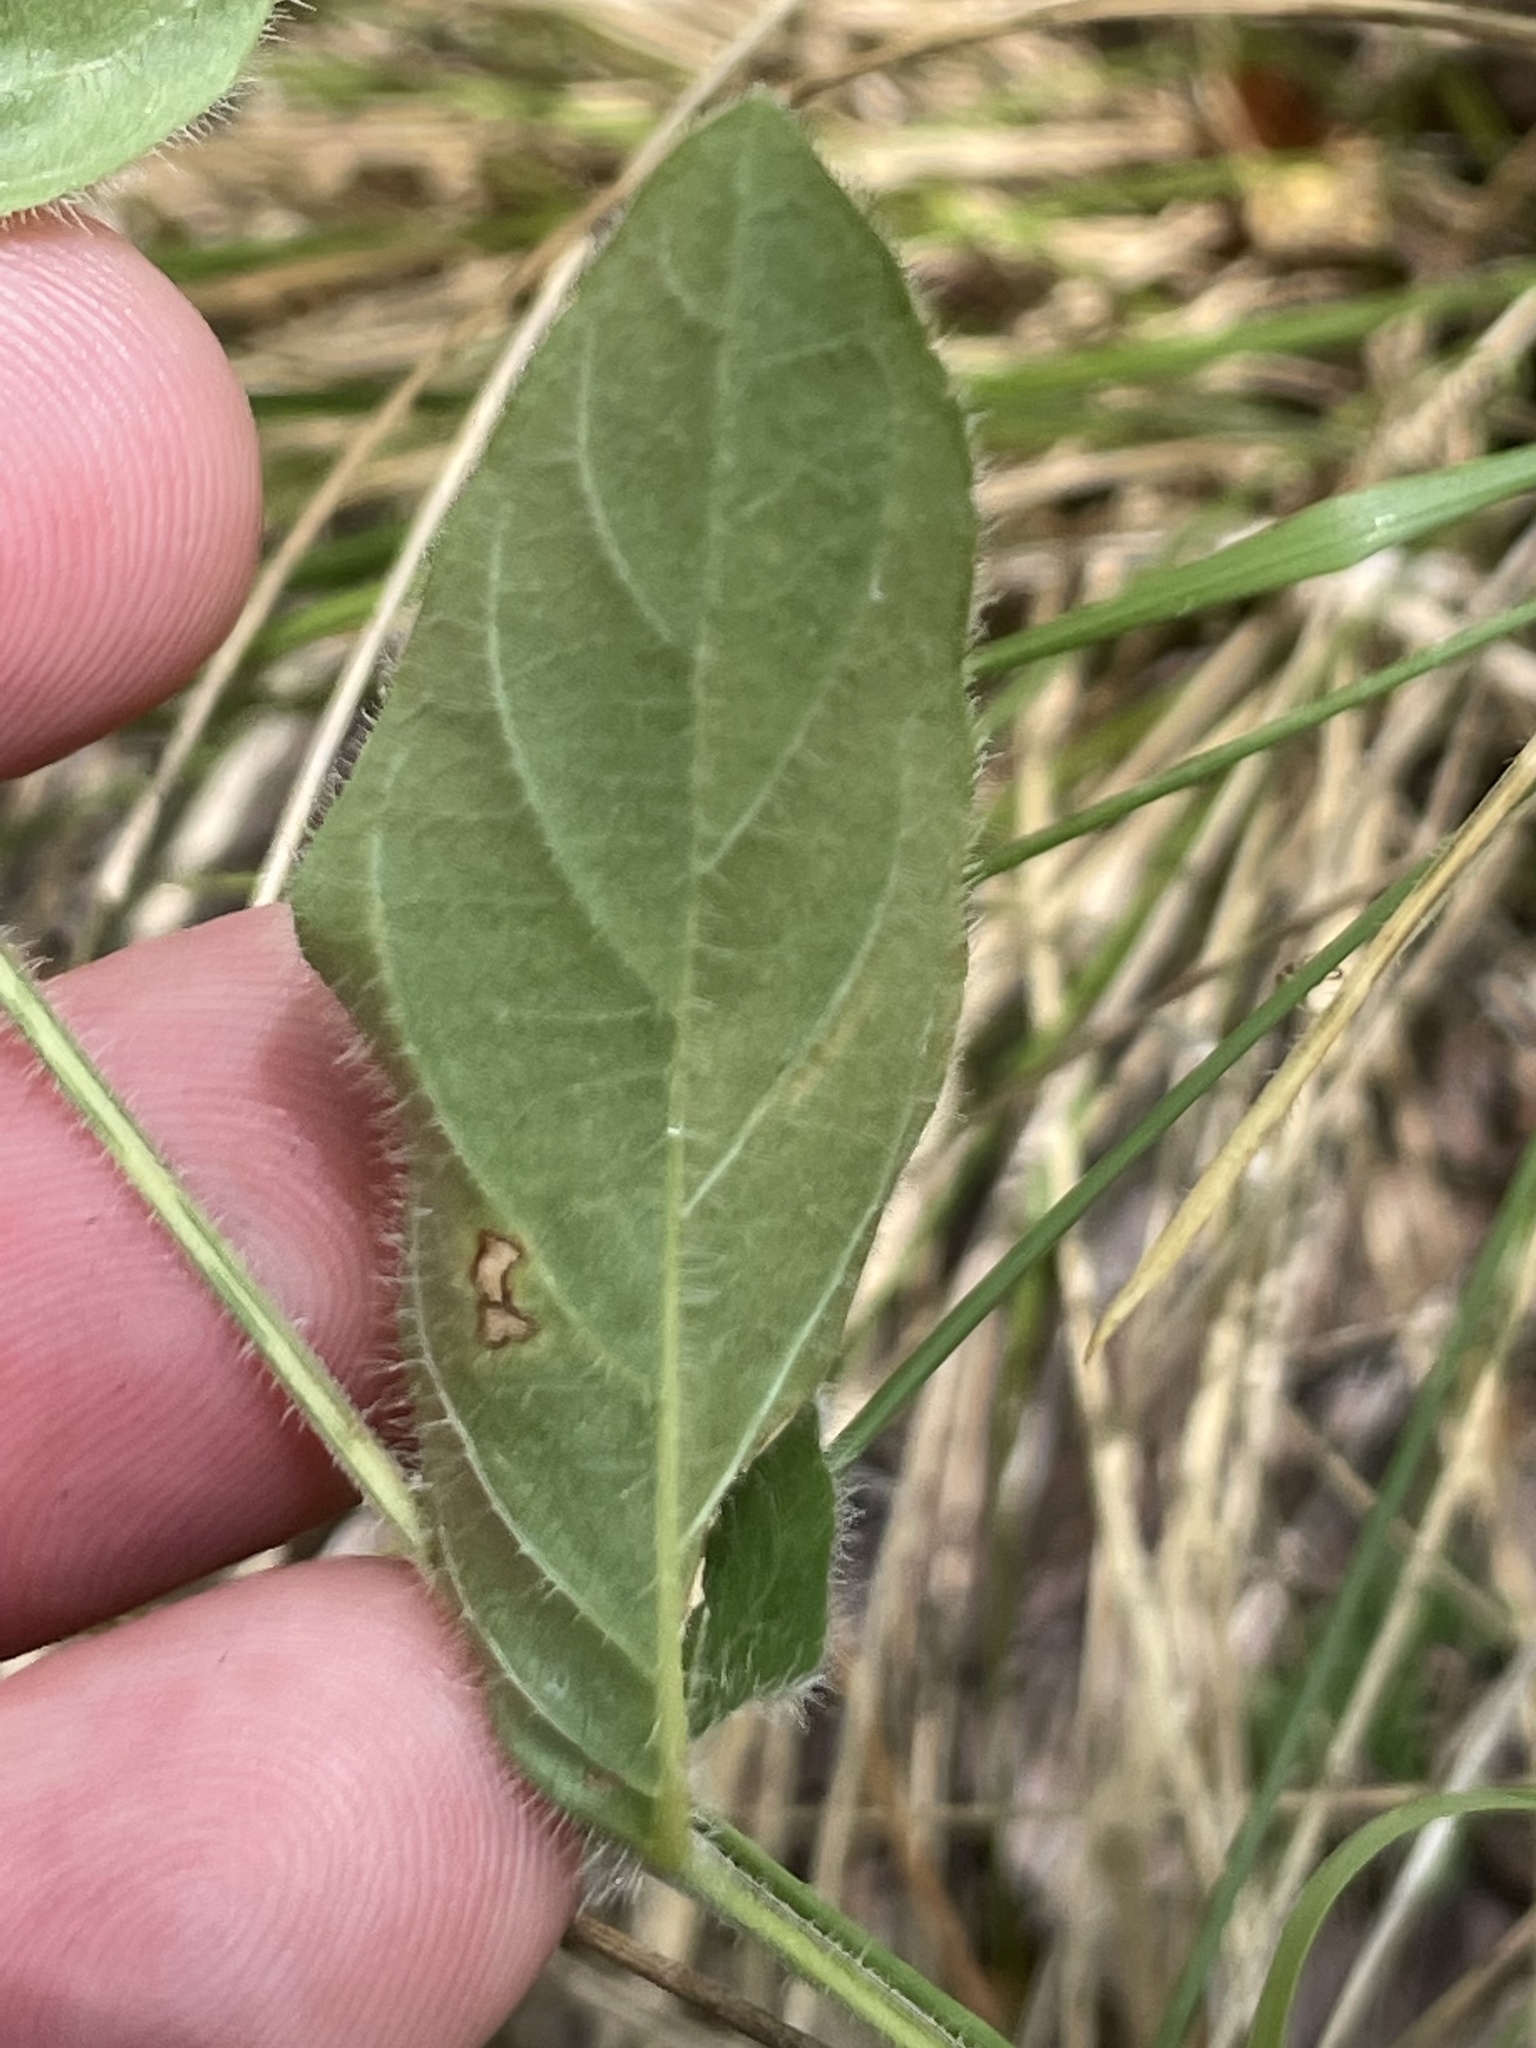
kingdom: Plantae
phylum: Tracheophyta
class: Magnoliopsida
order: Lamiales
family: Acanthaceae
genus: Ruellia
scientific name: Ruellia humilis
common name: Fringe-leaf ruellia
